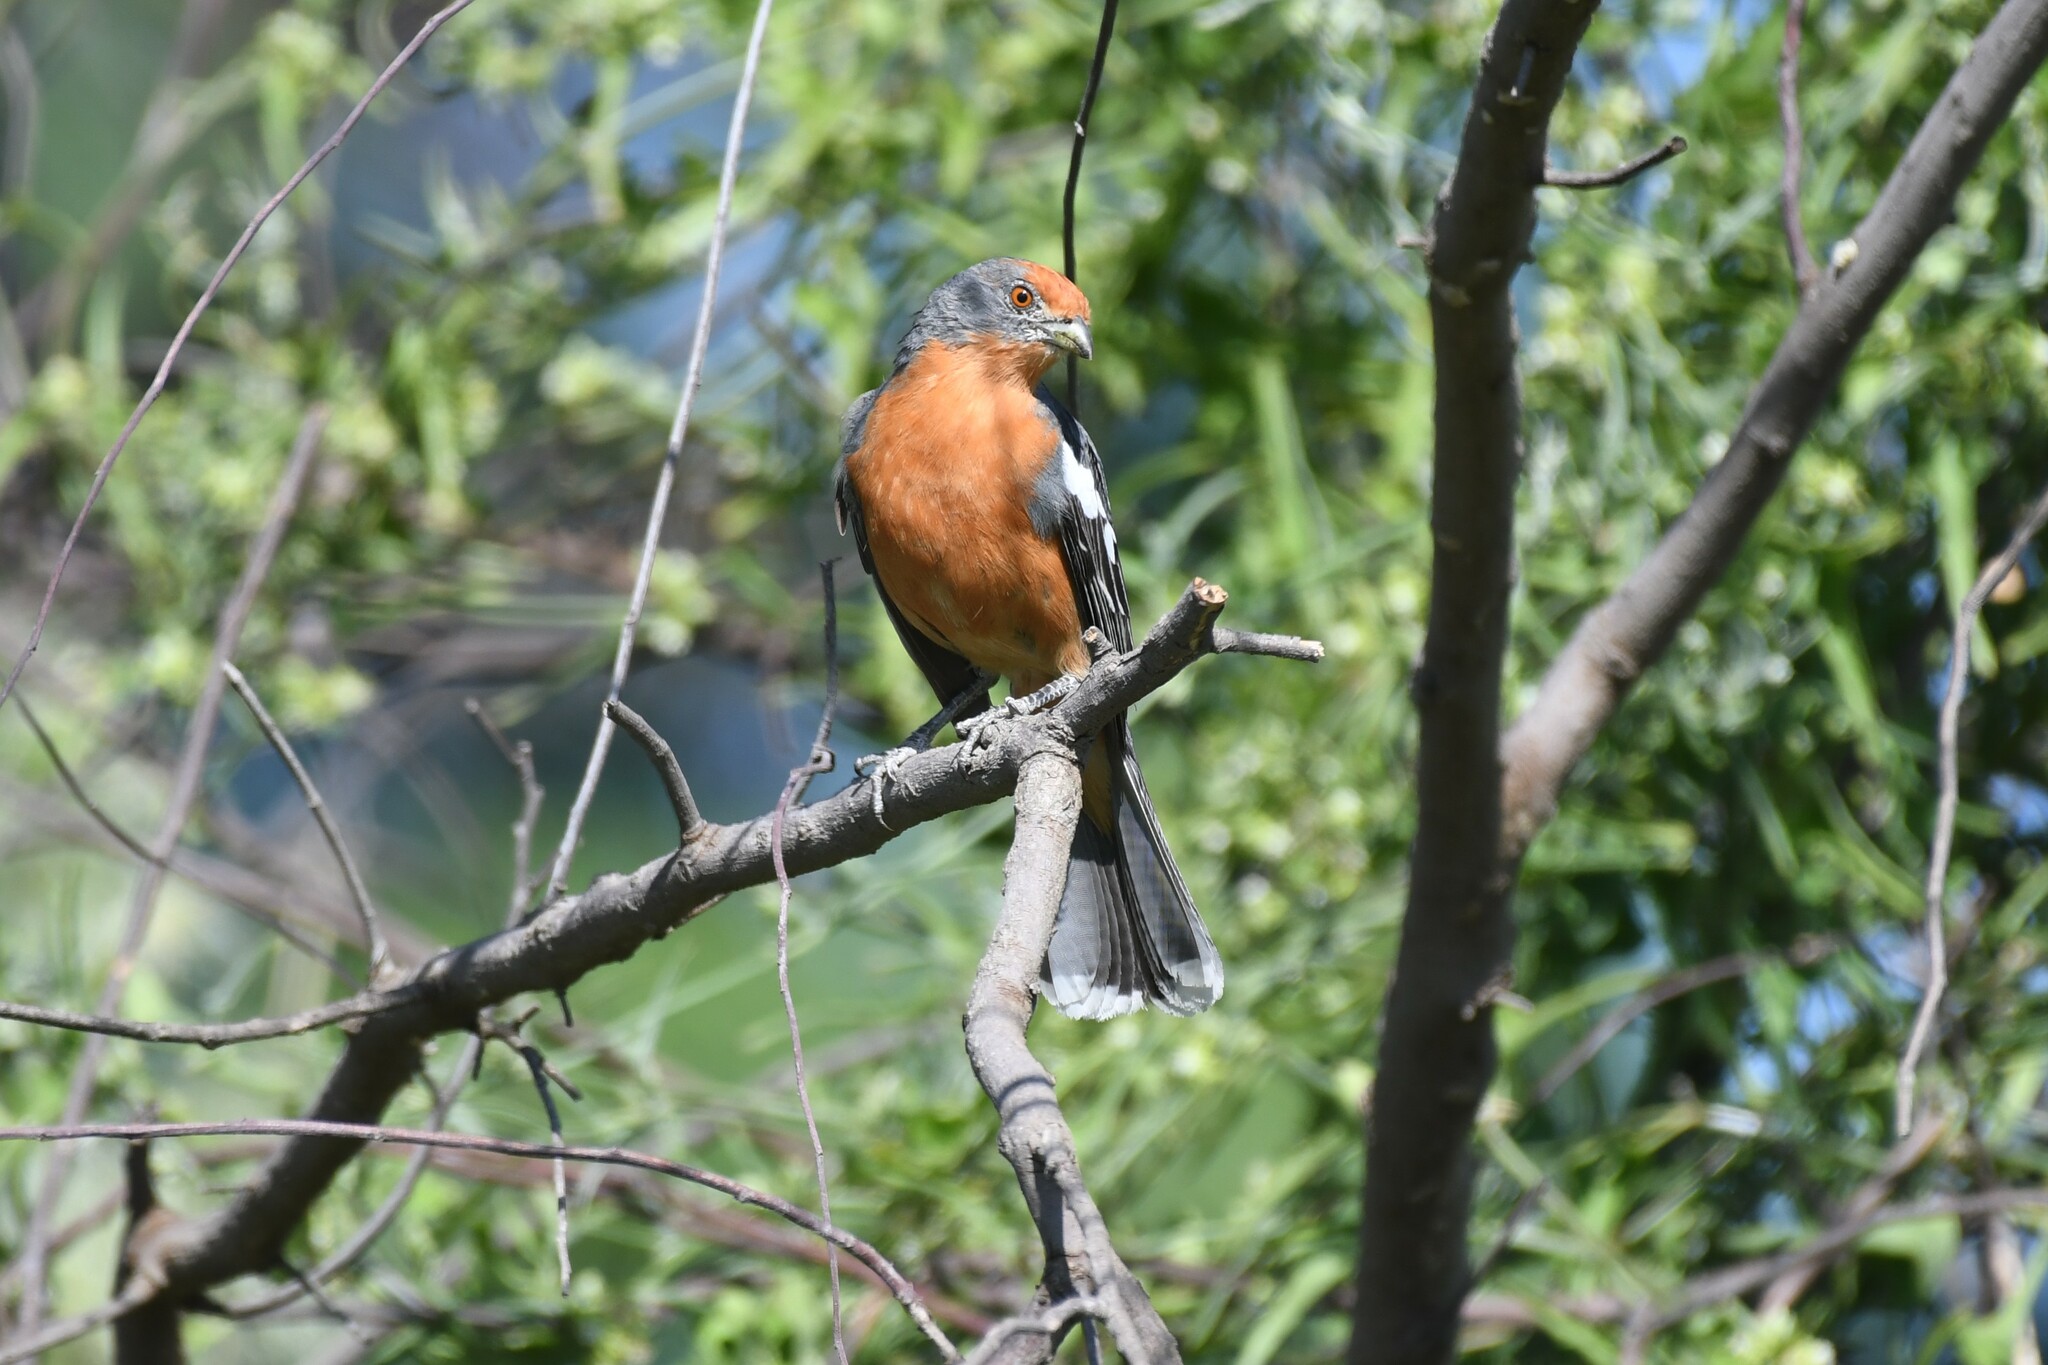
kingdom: Animalia
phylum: Chordata
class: Aves
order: Passeriformes
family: Cotingidae
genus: Phytotoma
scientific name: Phytotoma rutila
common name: White-tipped plantcutter
